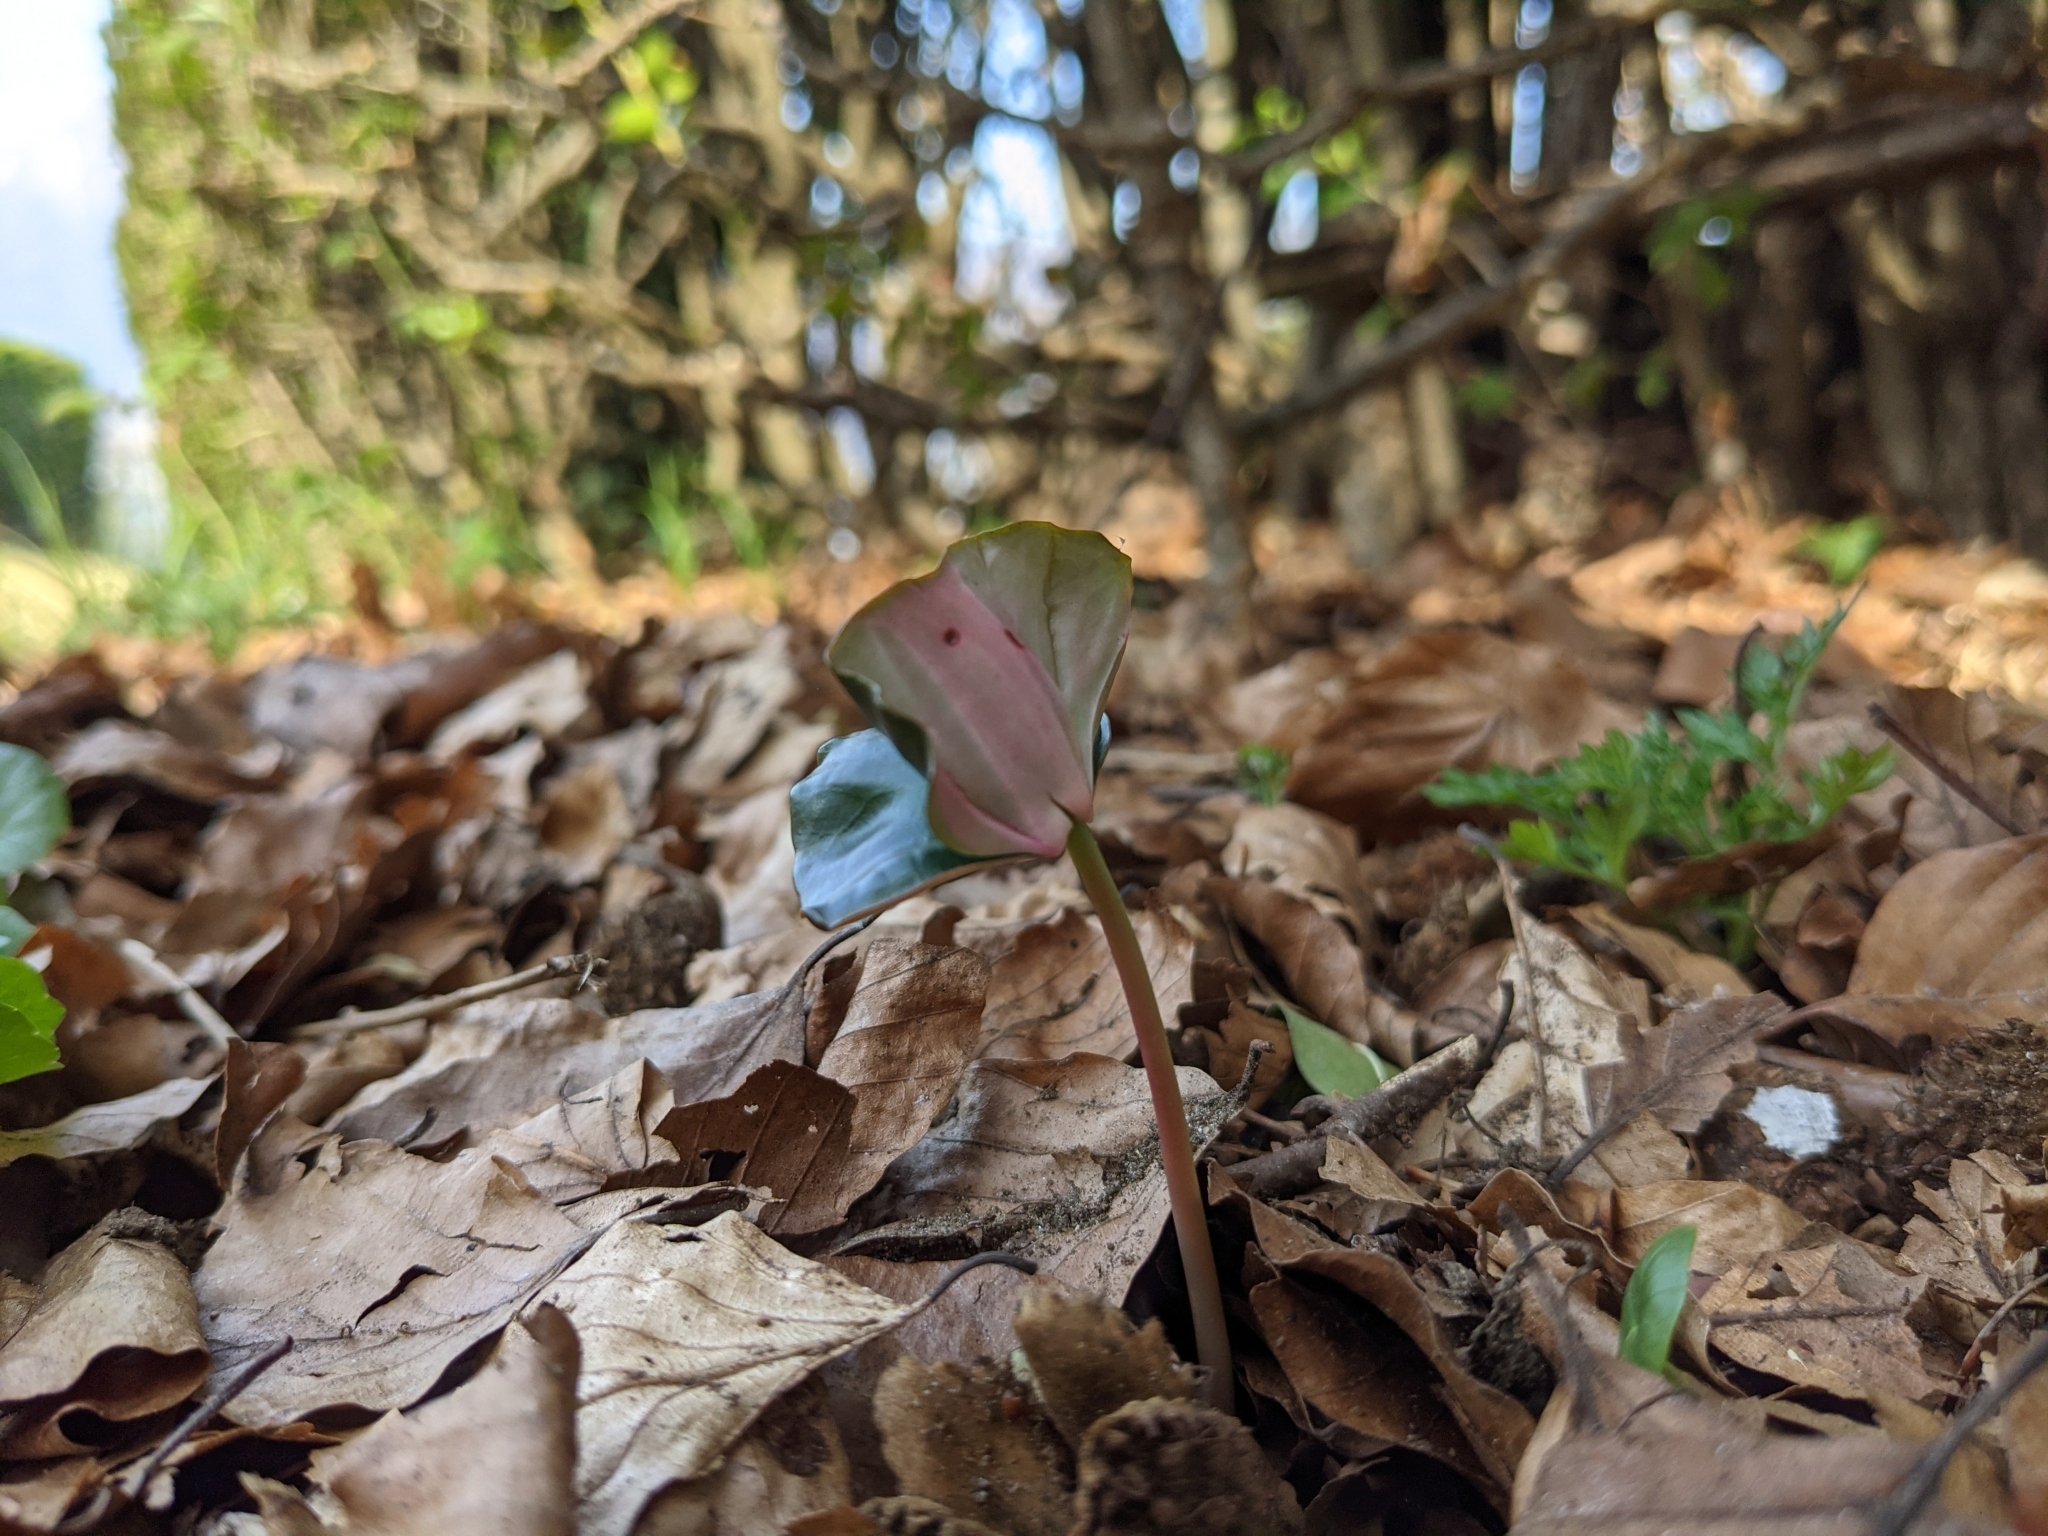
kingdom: Plantae
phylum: Tracheophyta
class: Magnoliopsida
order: Fagales
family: Fagaceae
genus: Fagus
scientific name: Fagus sylvatica
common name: Beech
